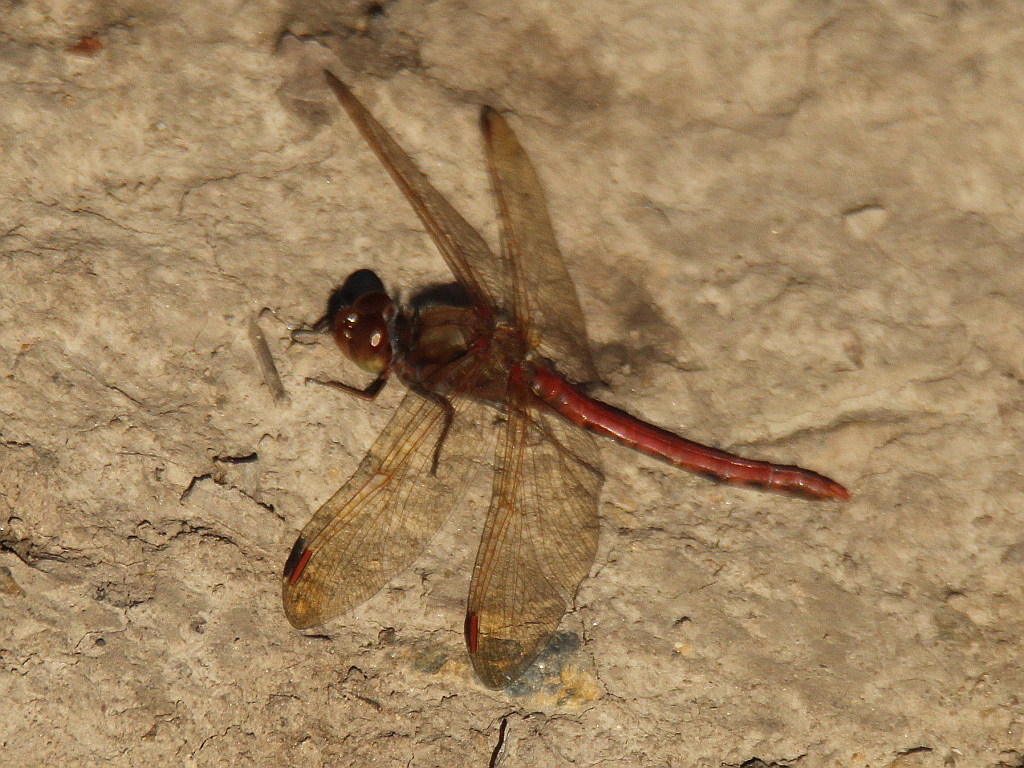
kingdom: Animalia
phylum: Arthropoda
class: Insecta
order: Odonata
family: Libellulidae
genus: Sympetrum
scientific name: Sympetrum striolatum
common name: Common darter
